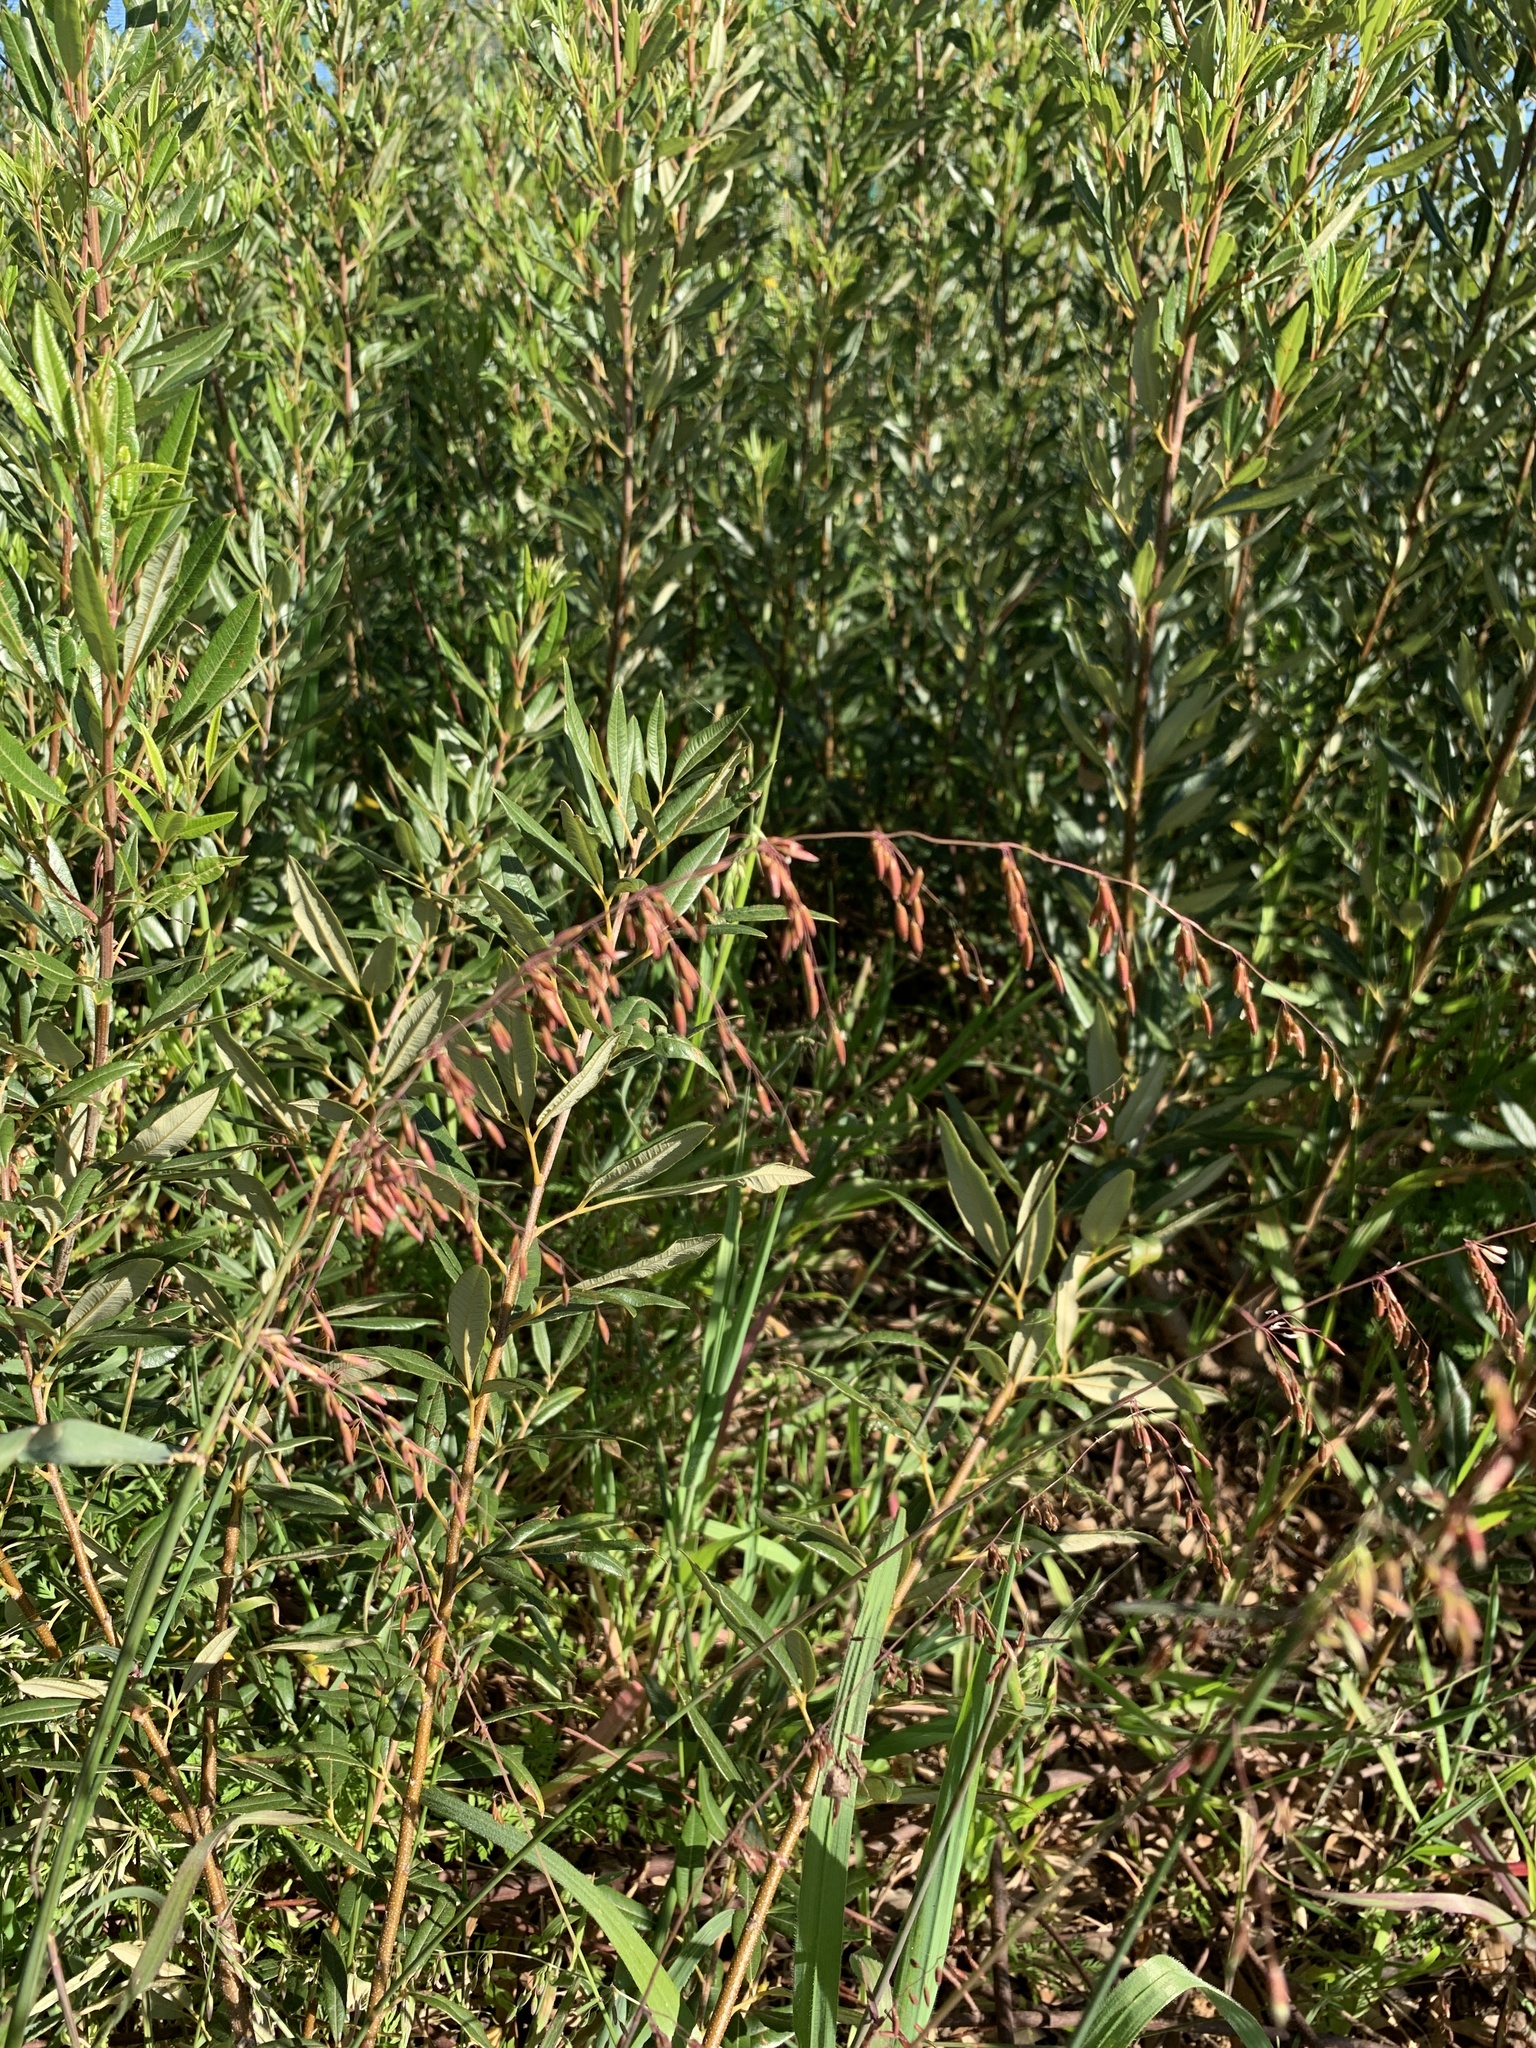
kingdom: Plantae
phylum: Tracheophyta
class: Liliopsida
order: Poales
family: Poaceae
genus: Ehrharta
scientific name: Ehrharta calycina
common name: Perennial veldtgrass
